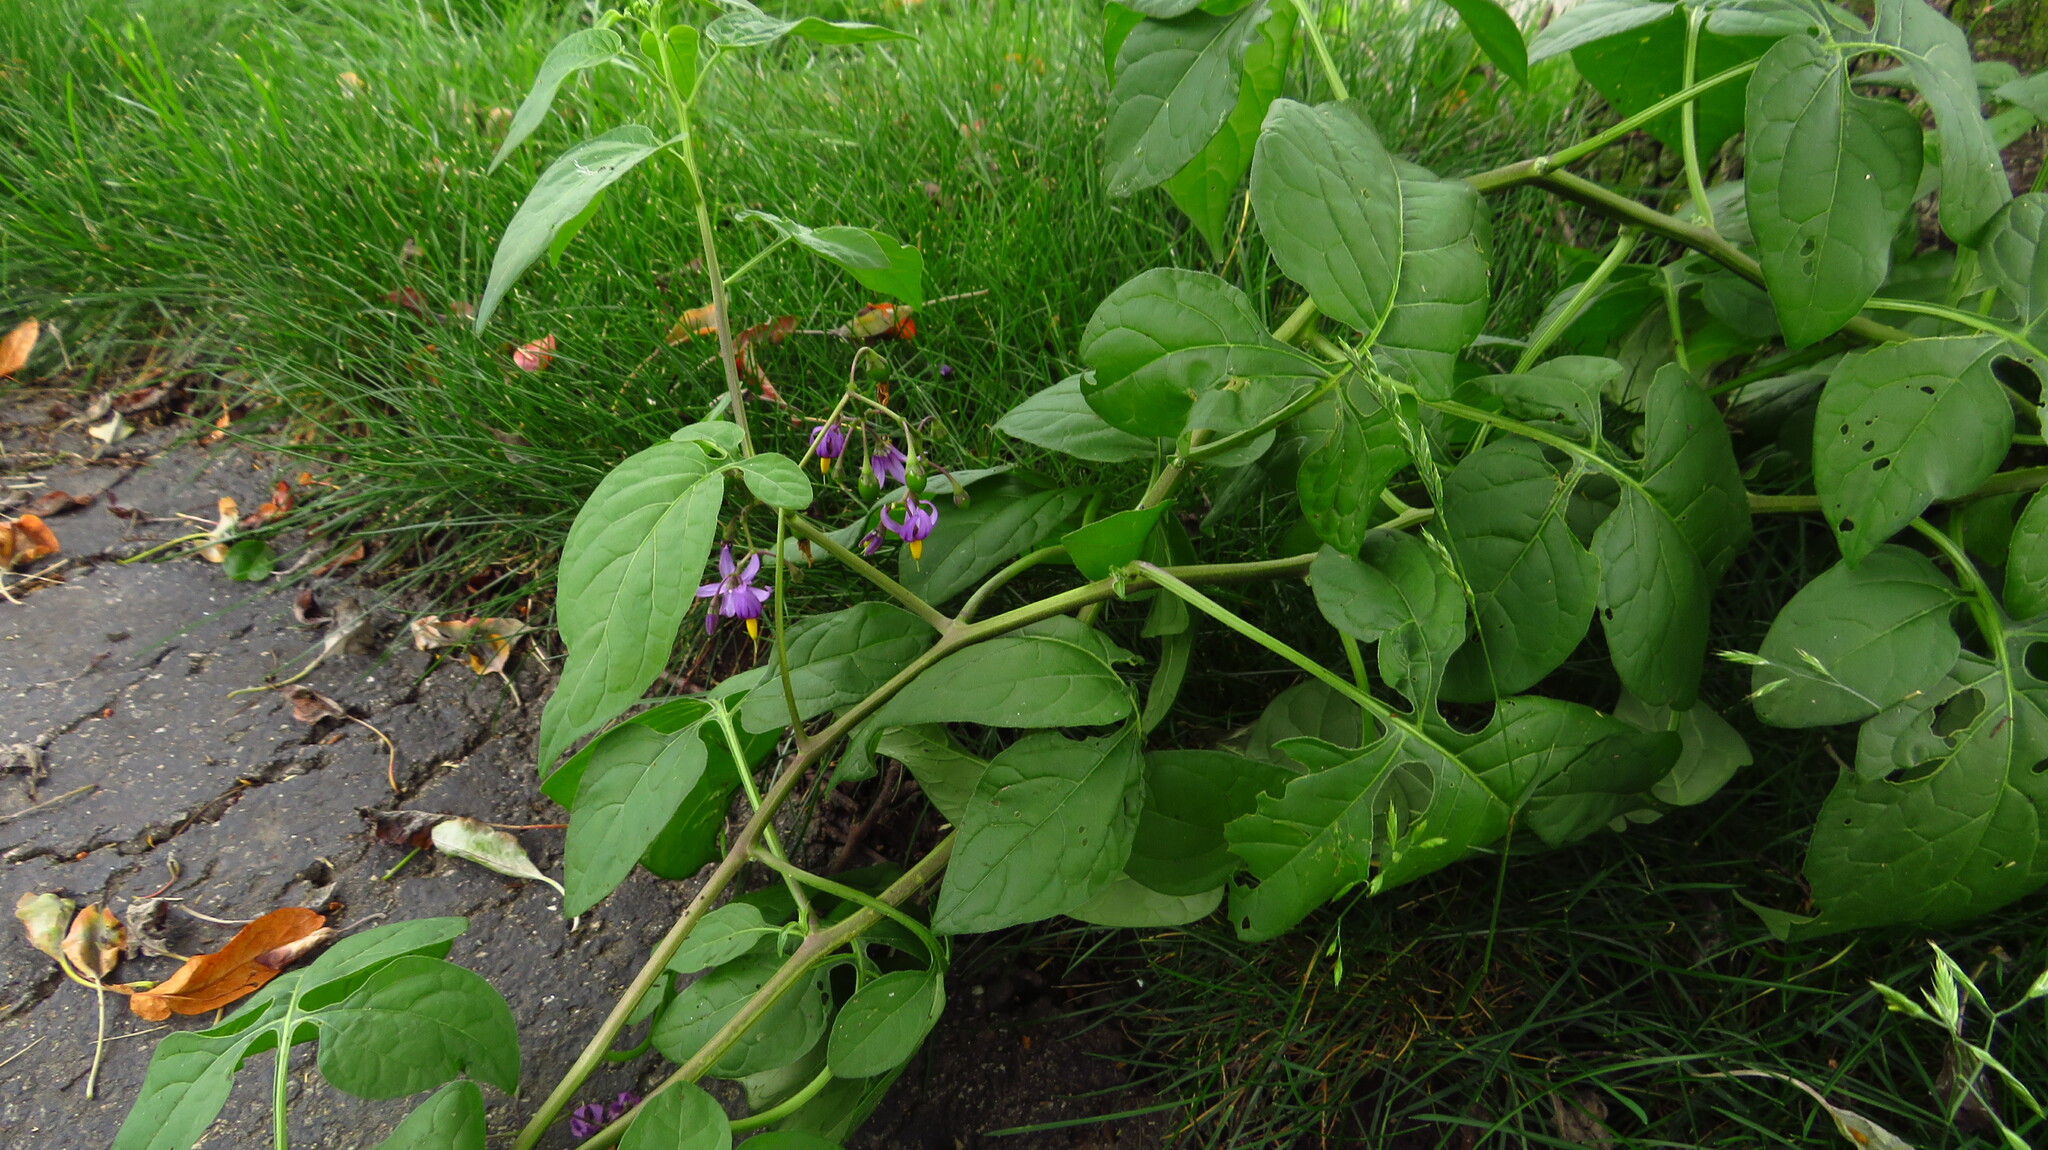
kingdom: Plantae
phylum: Tracheophyta
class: Magnoliopsida
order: Solanales
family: Solanaceae
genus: Solanum
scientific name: Solanum dulcamara
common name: Climbing nightshade
